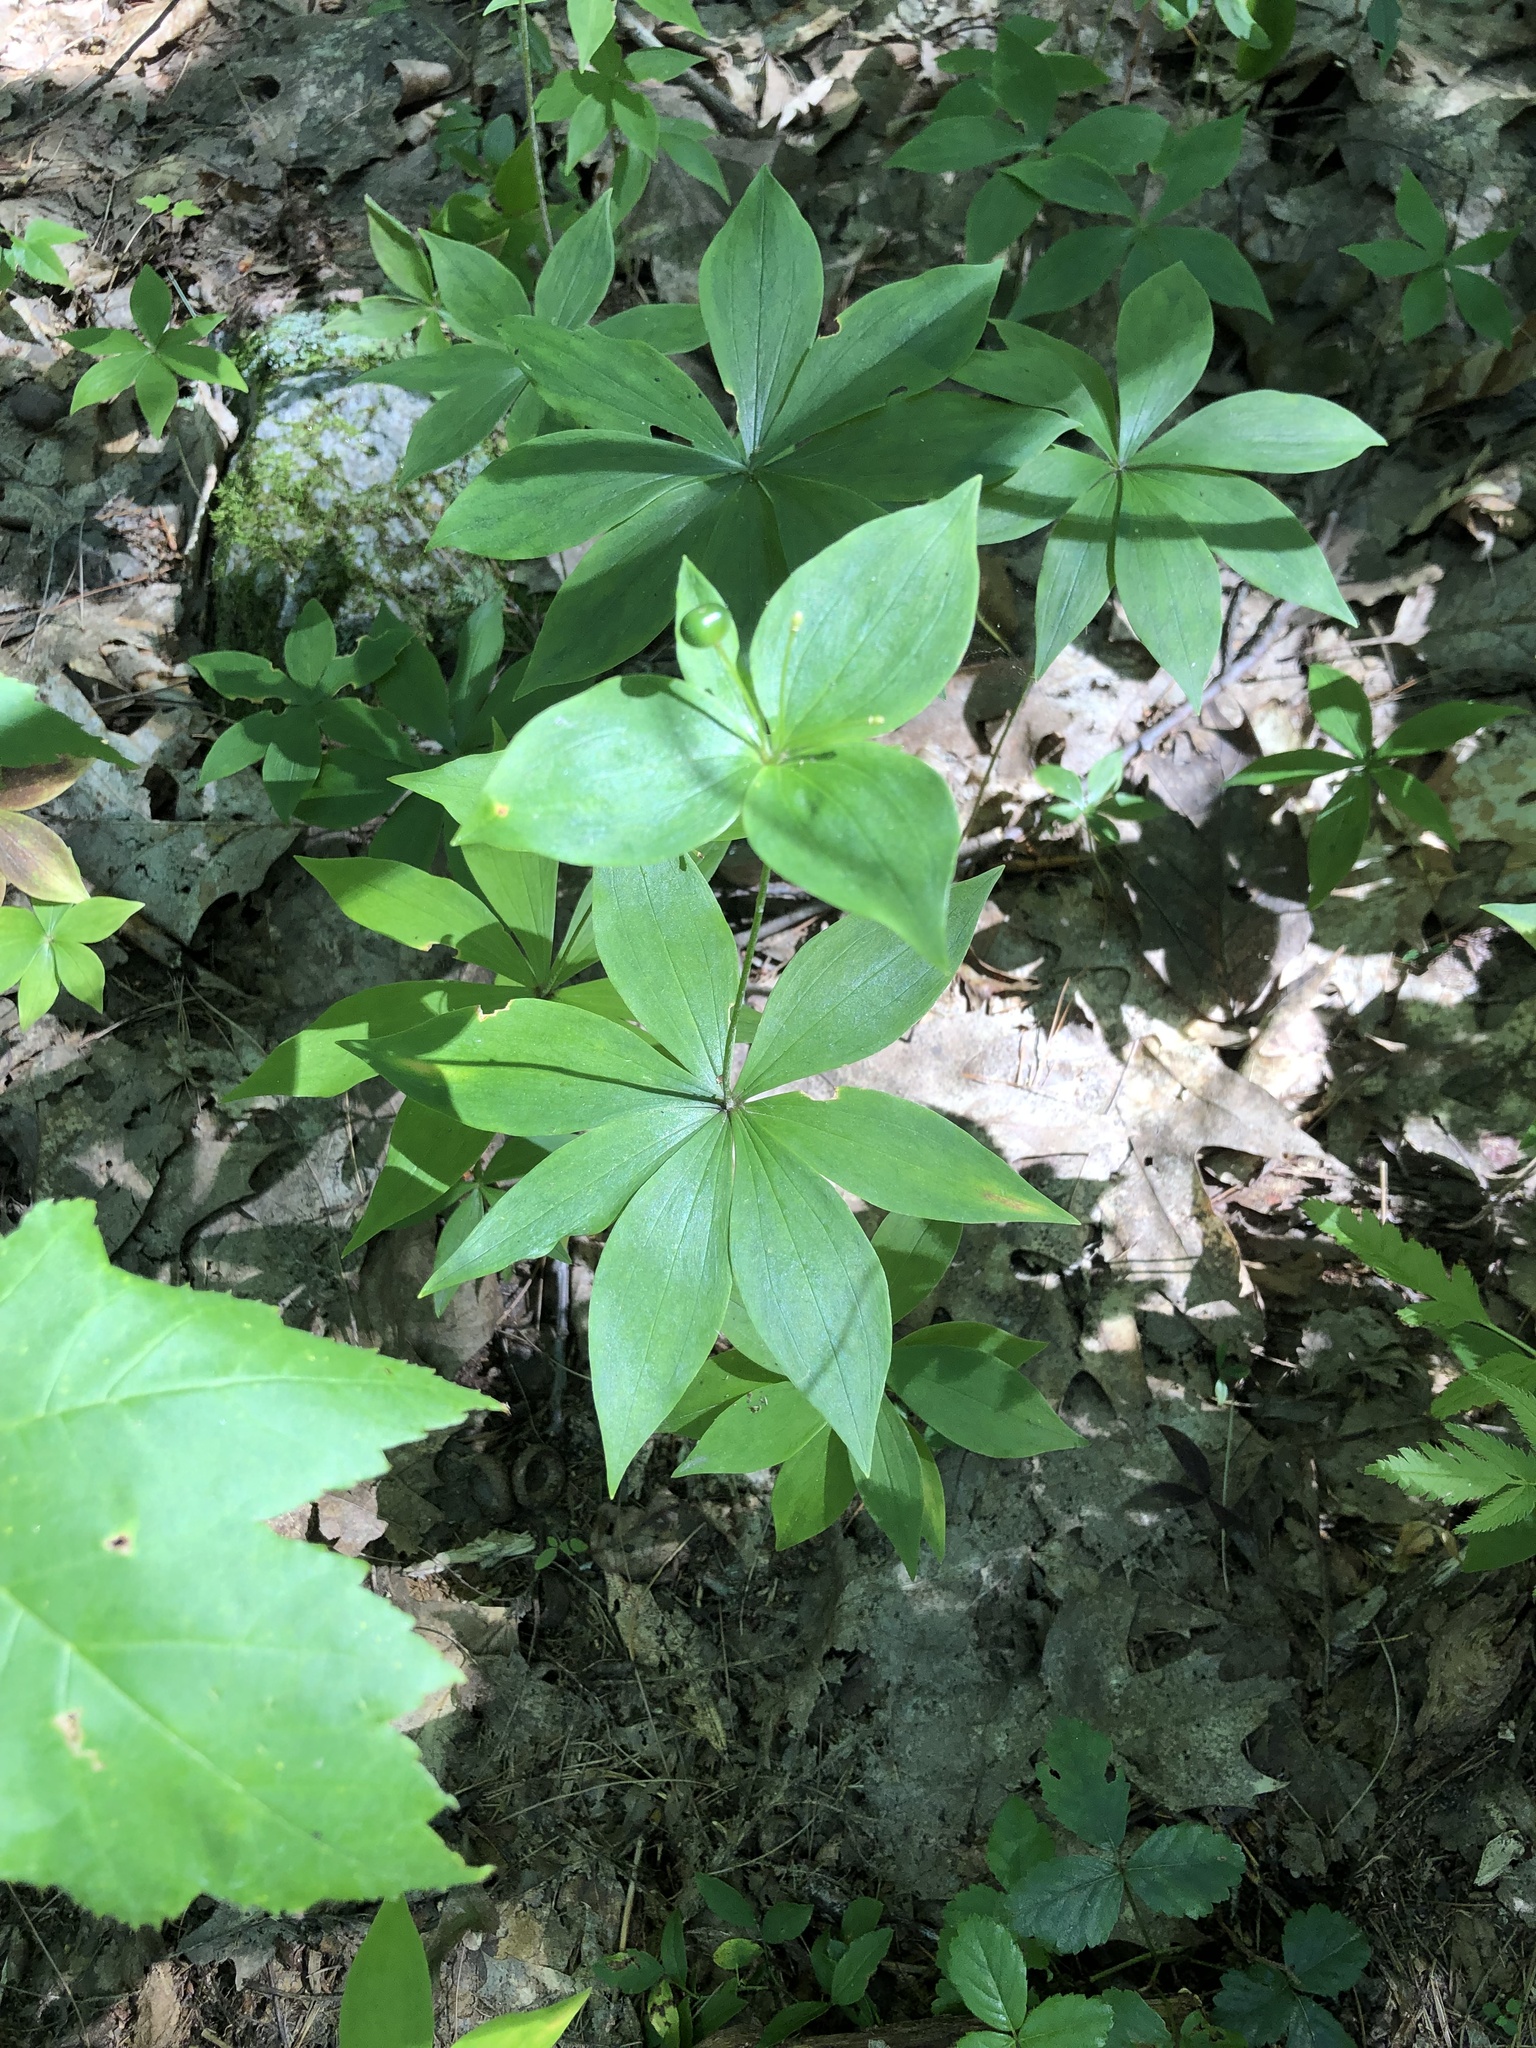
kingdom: Plantae
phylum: Tracheophyta
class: Liliopsida
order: Liliales
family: Liliaceae
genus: Medeola
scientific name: Medeola virginiana
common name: Indian cucumber-root
